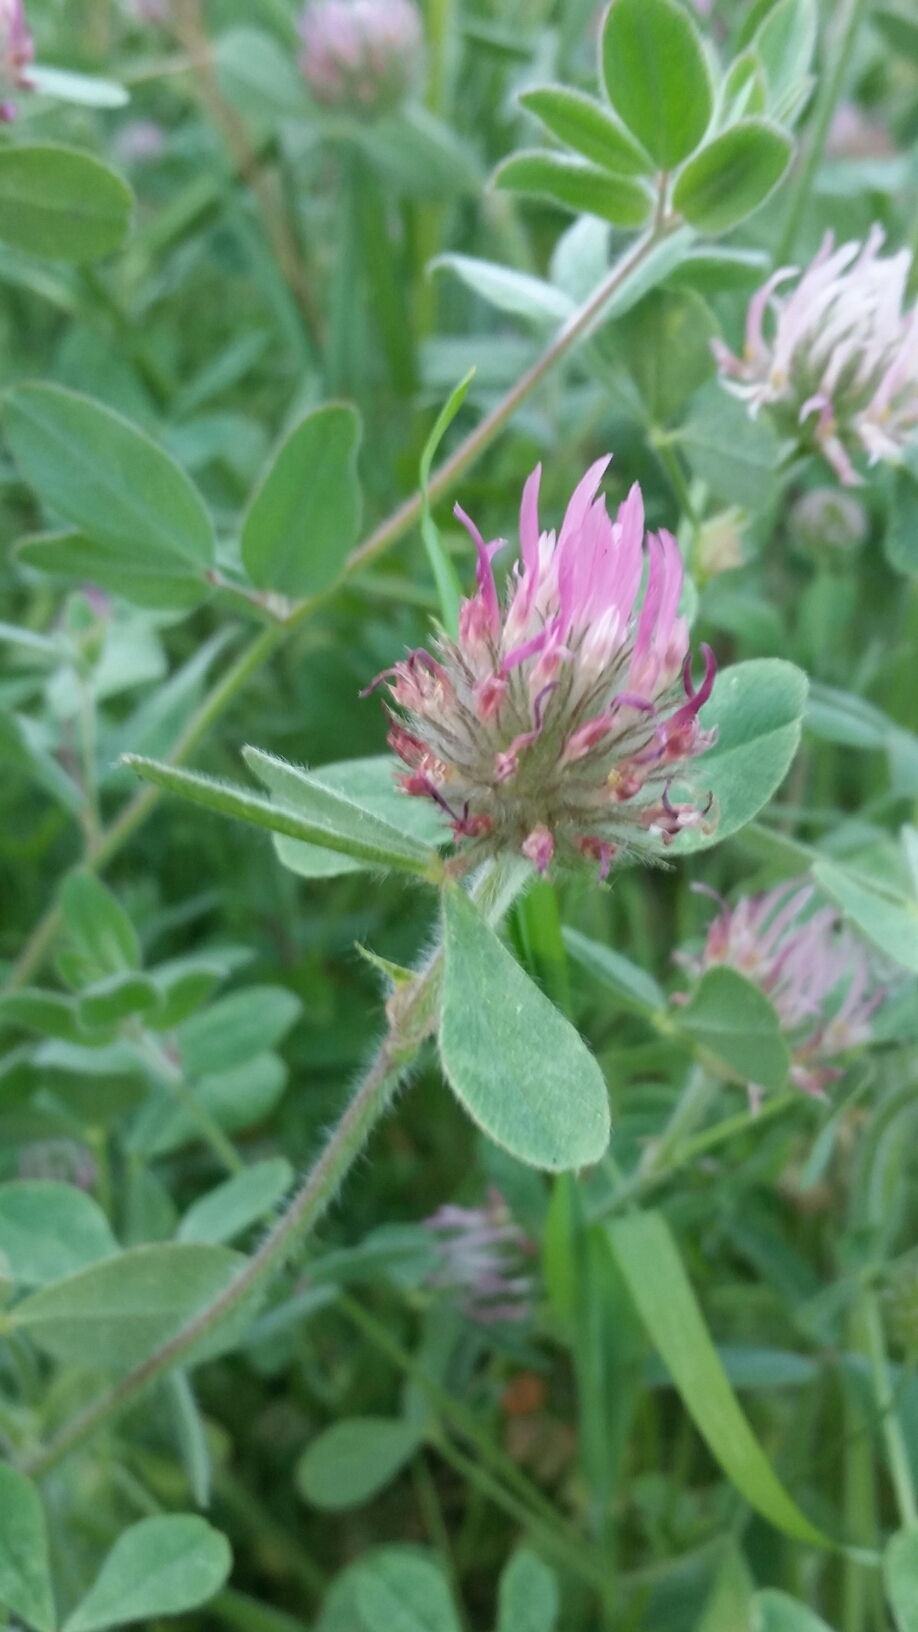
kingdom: Plantae
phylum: Tracheophyta
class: Magnoliopsida
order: Fabales
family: Fabaceae
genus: Trifolium
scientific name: Trifolium hirtum
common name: Rose clover
